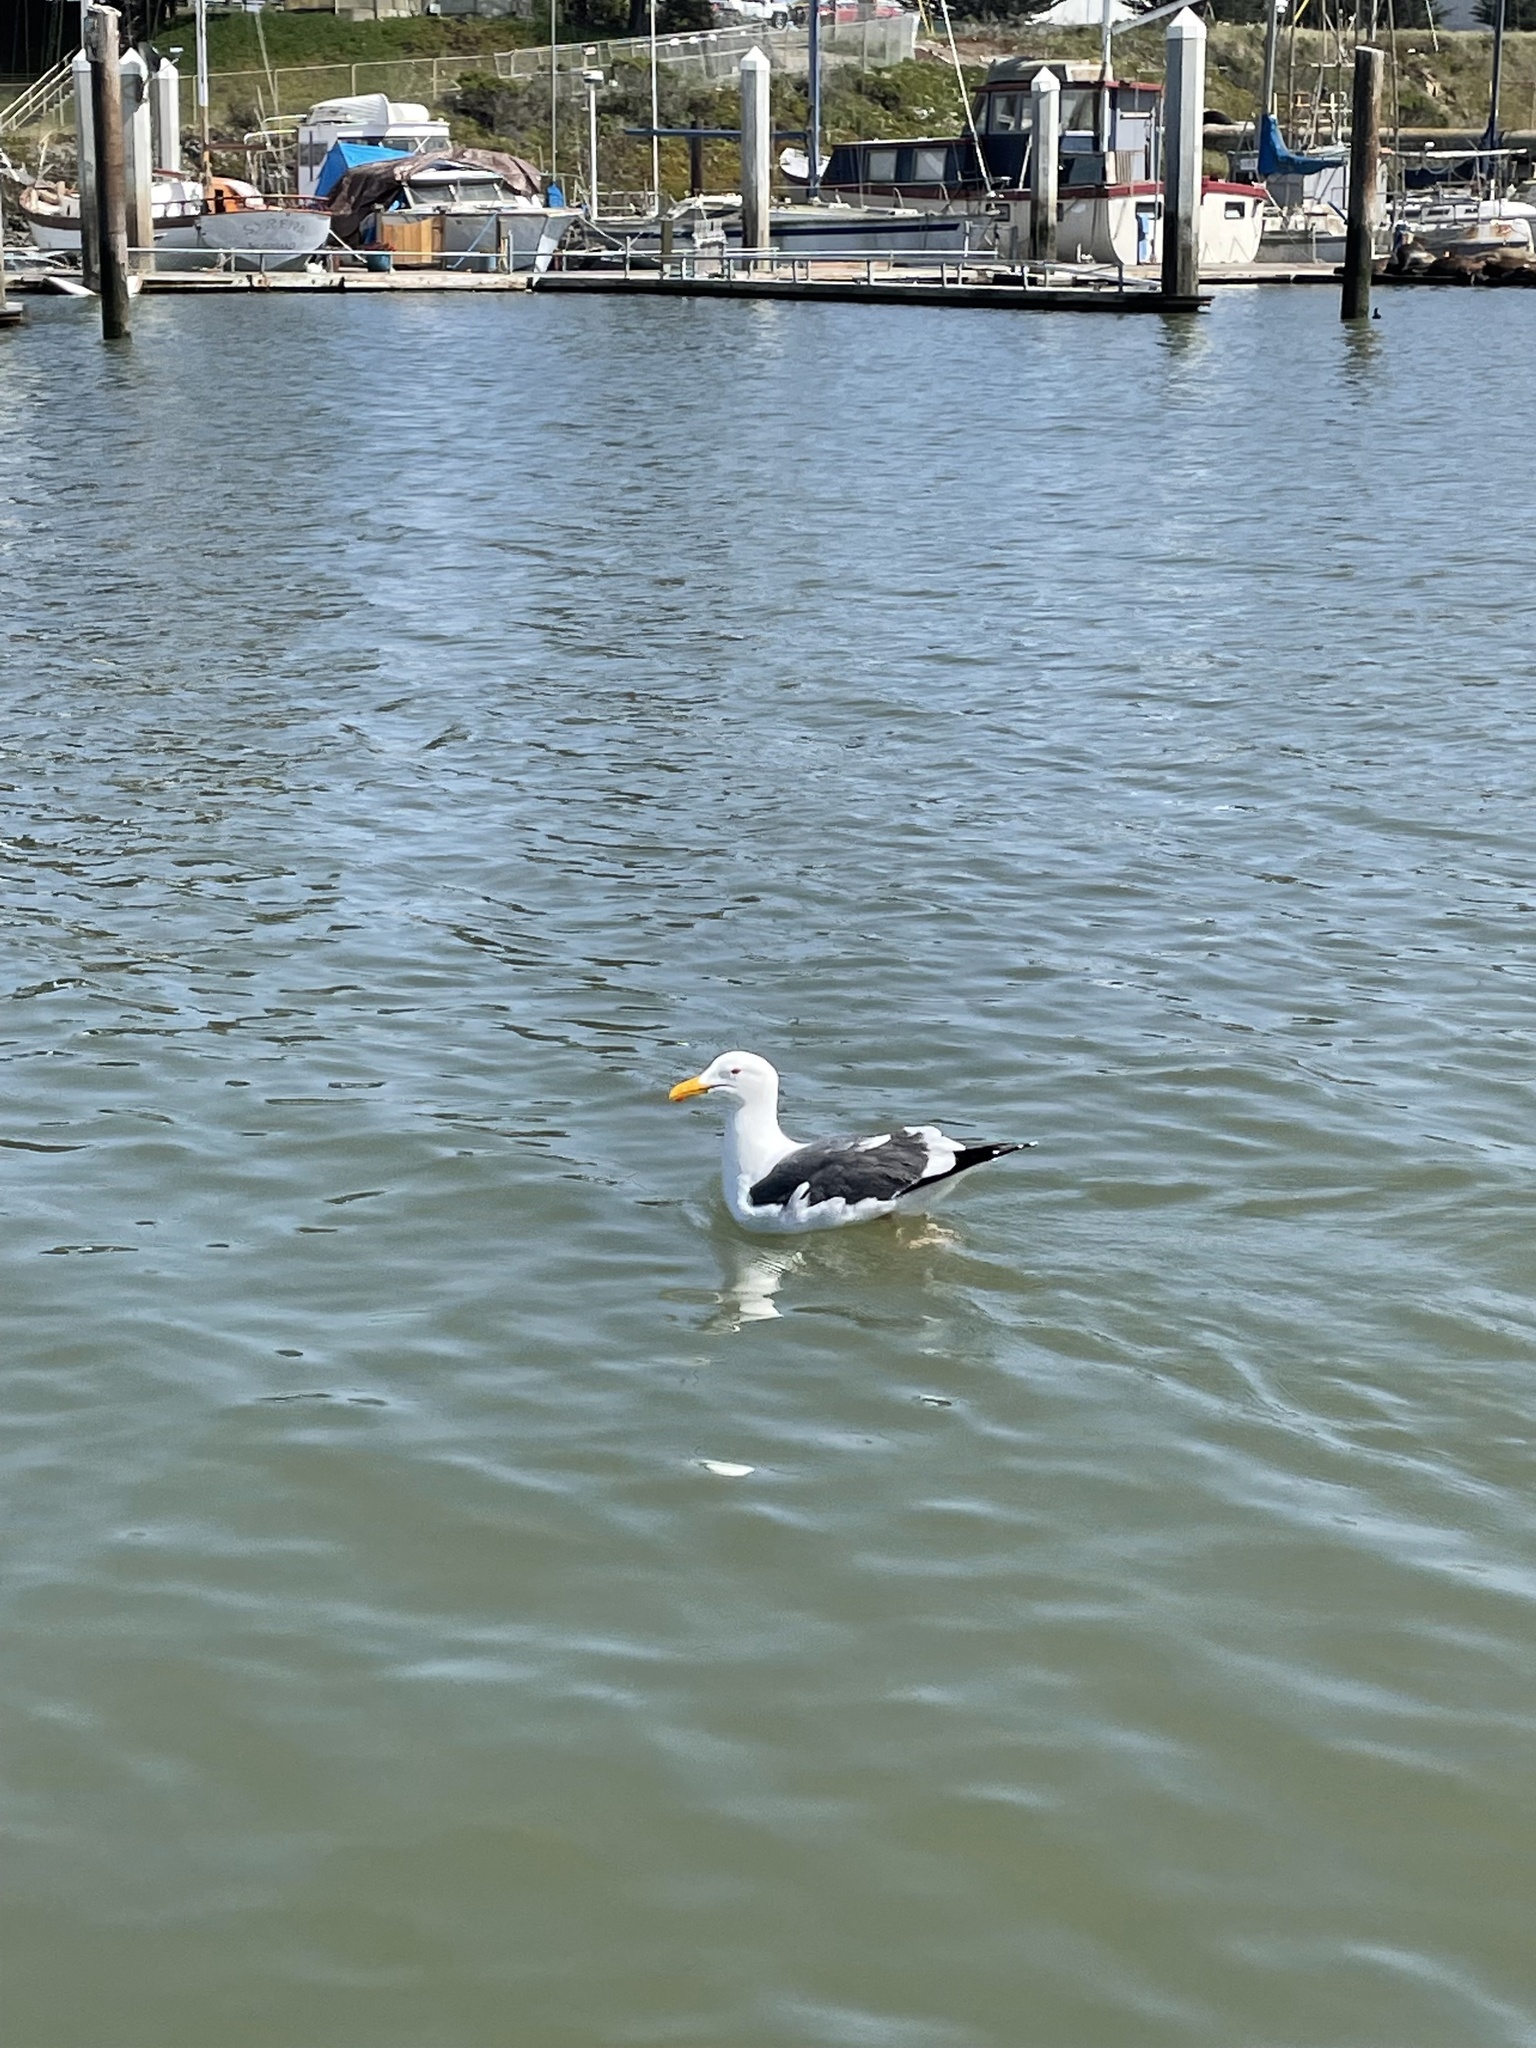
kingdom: Animalia
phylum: Chordata
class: Aves
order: Charadriiformes
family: Laridae
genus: Larus
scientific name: Larus occidentalis
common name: Western gull
